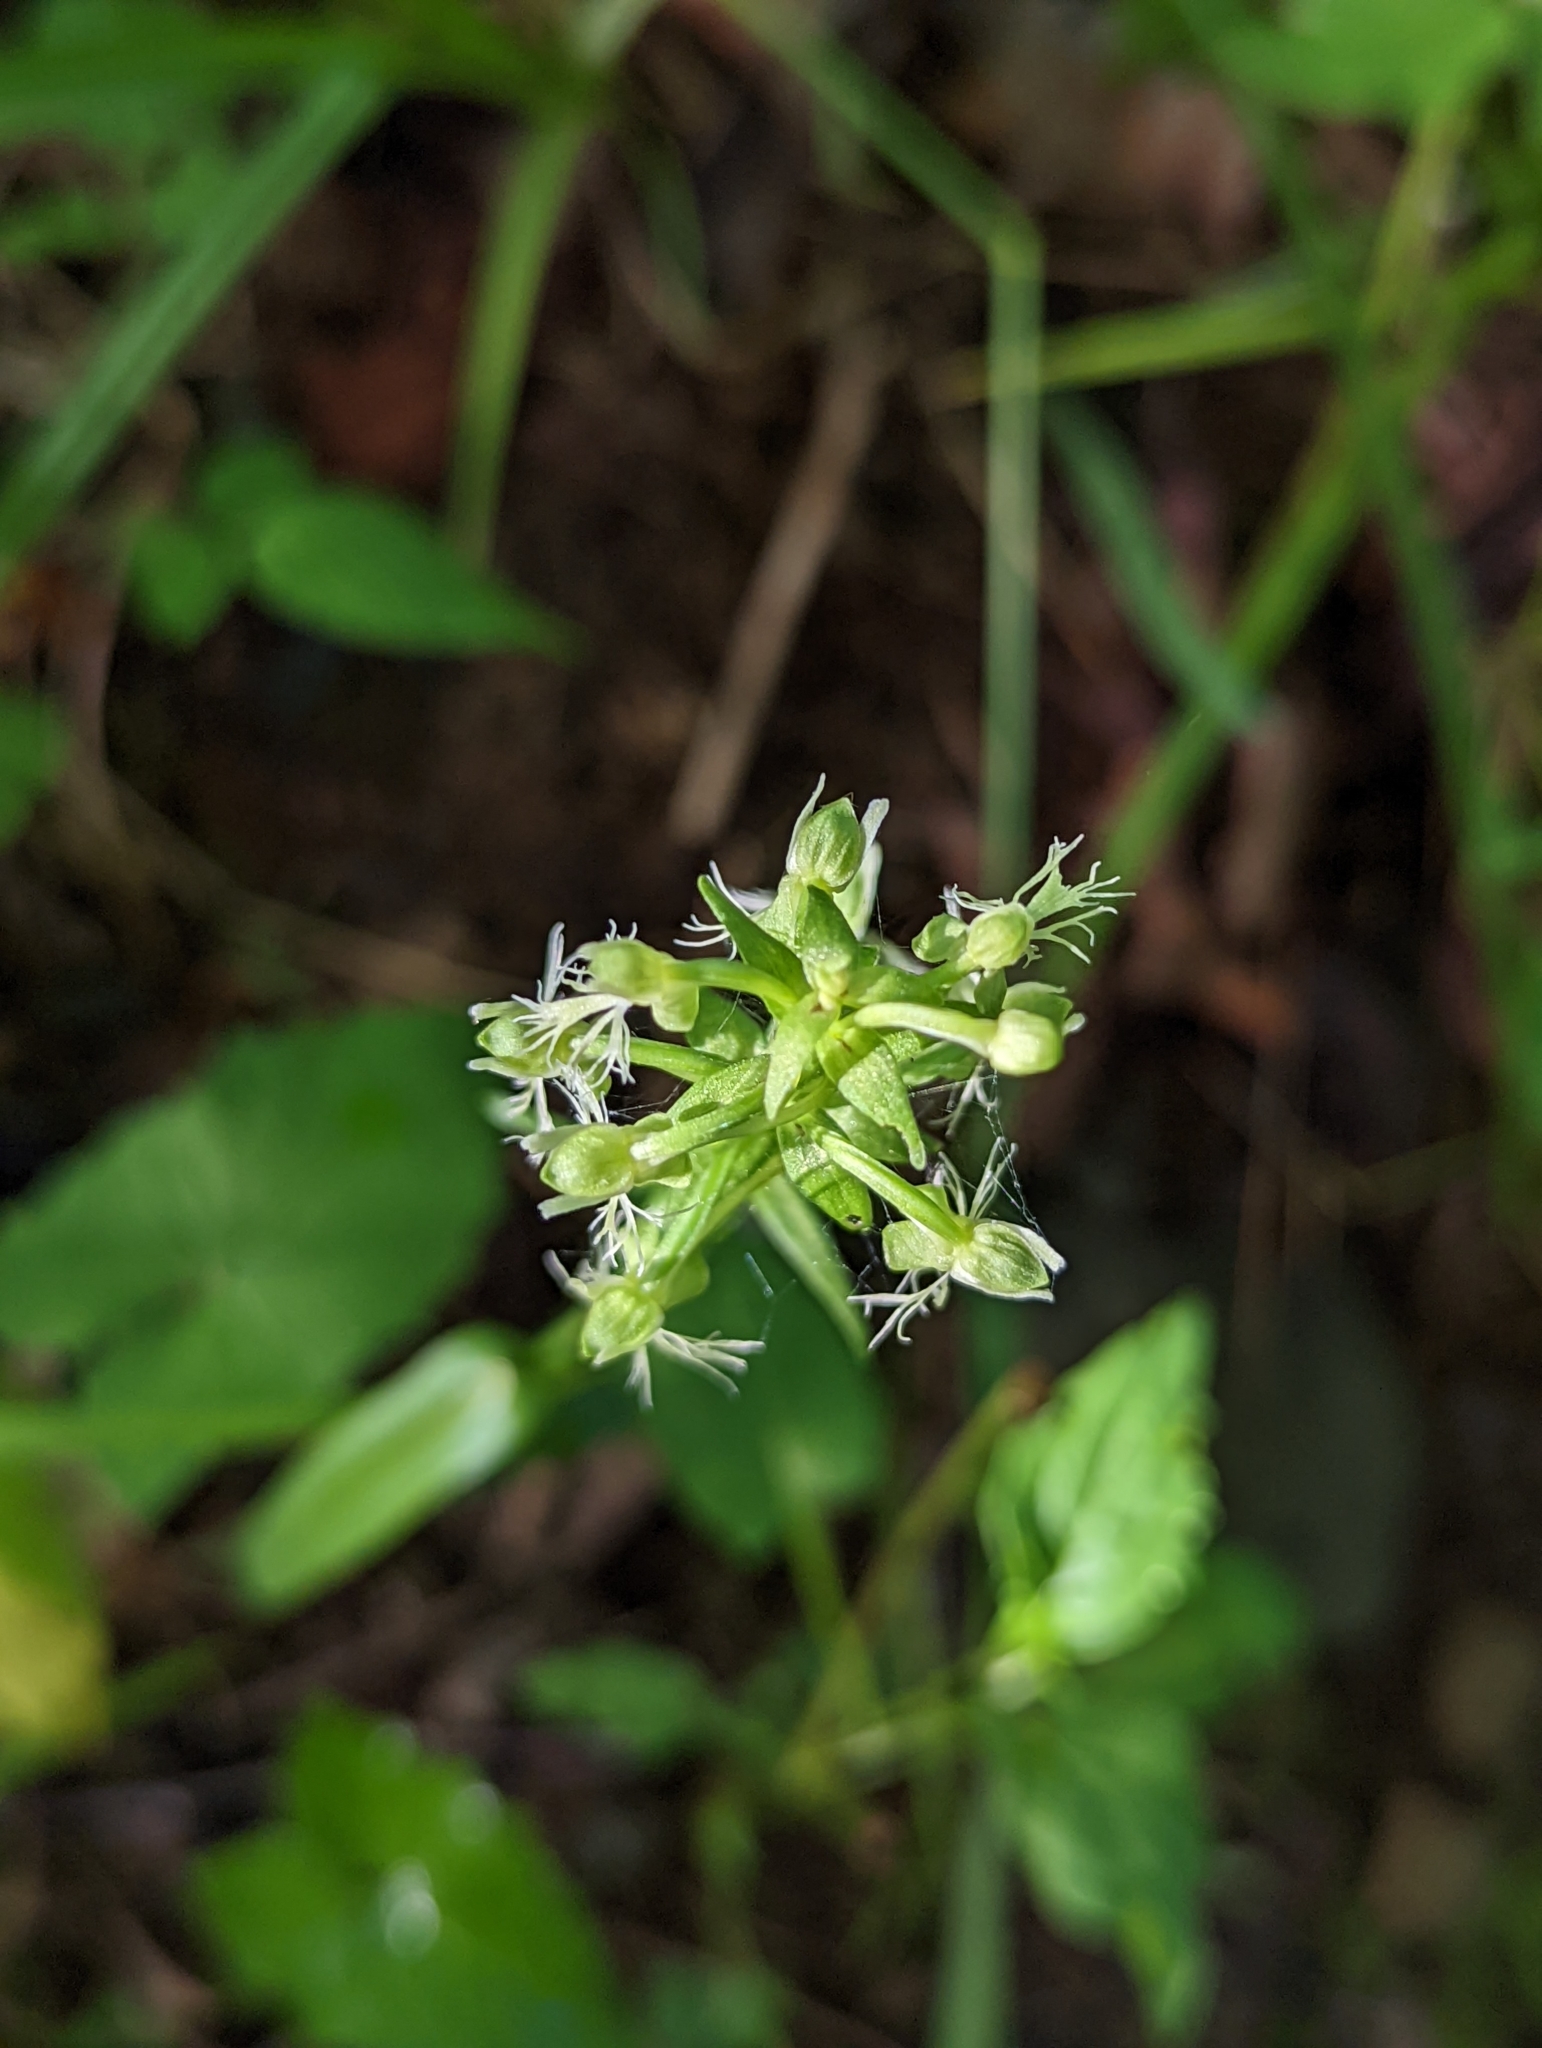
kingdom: Plantae
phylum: Tracheophyta
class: Liliopsida
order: Asparagales
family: Orchidaceae
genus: Platanthera
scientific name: Platanthera lacera
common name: Green fringed orchid
